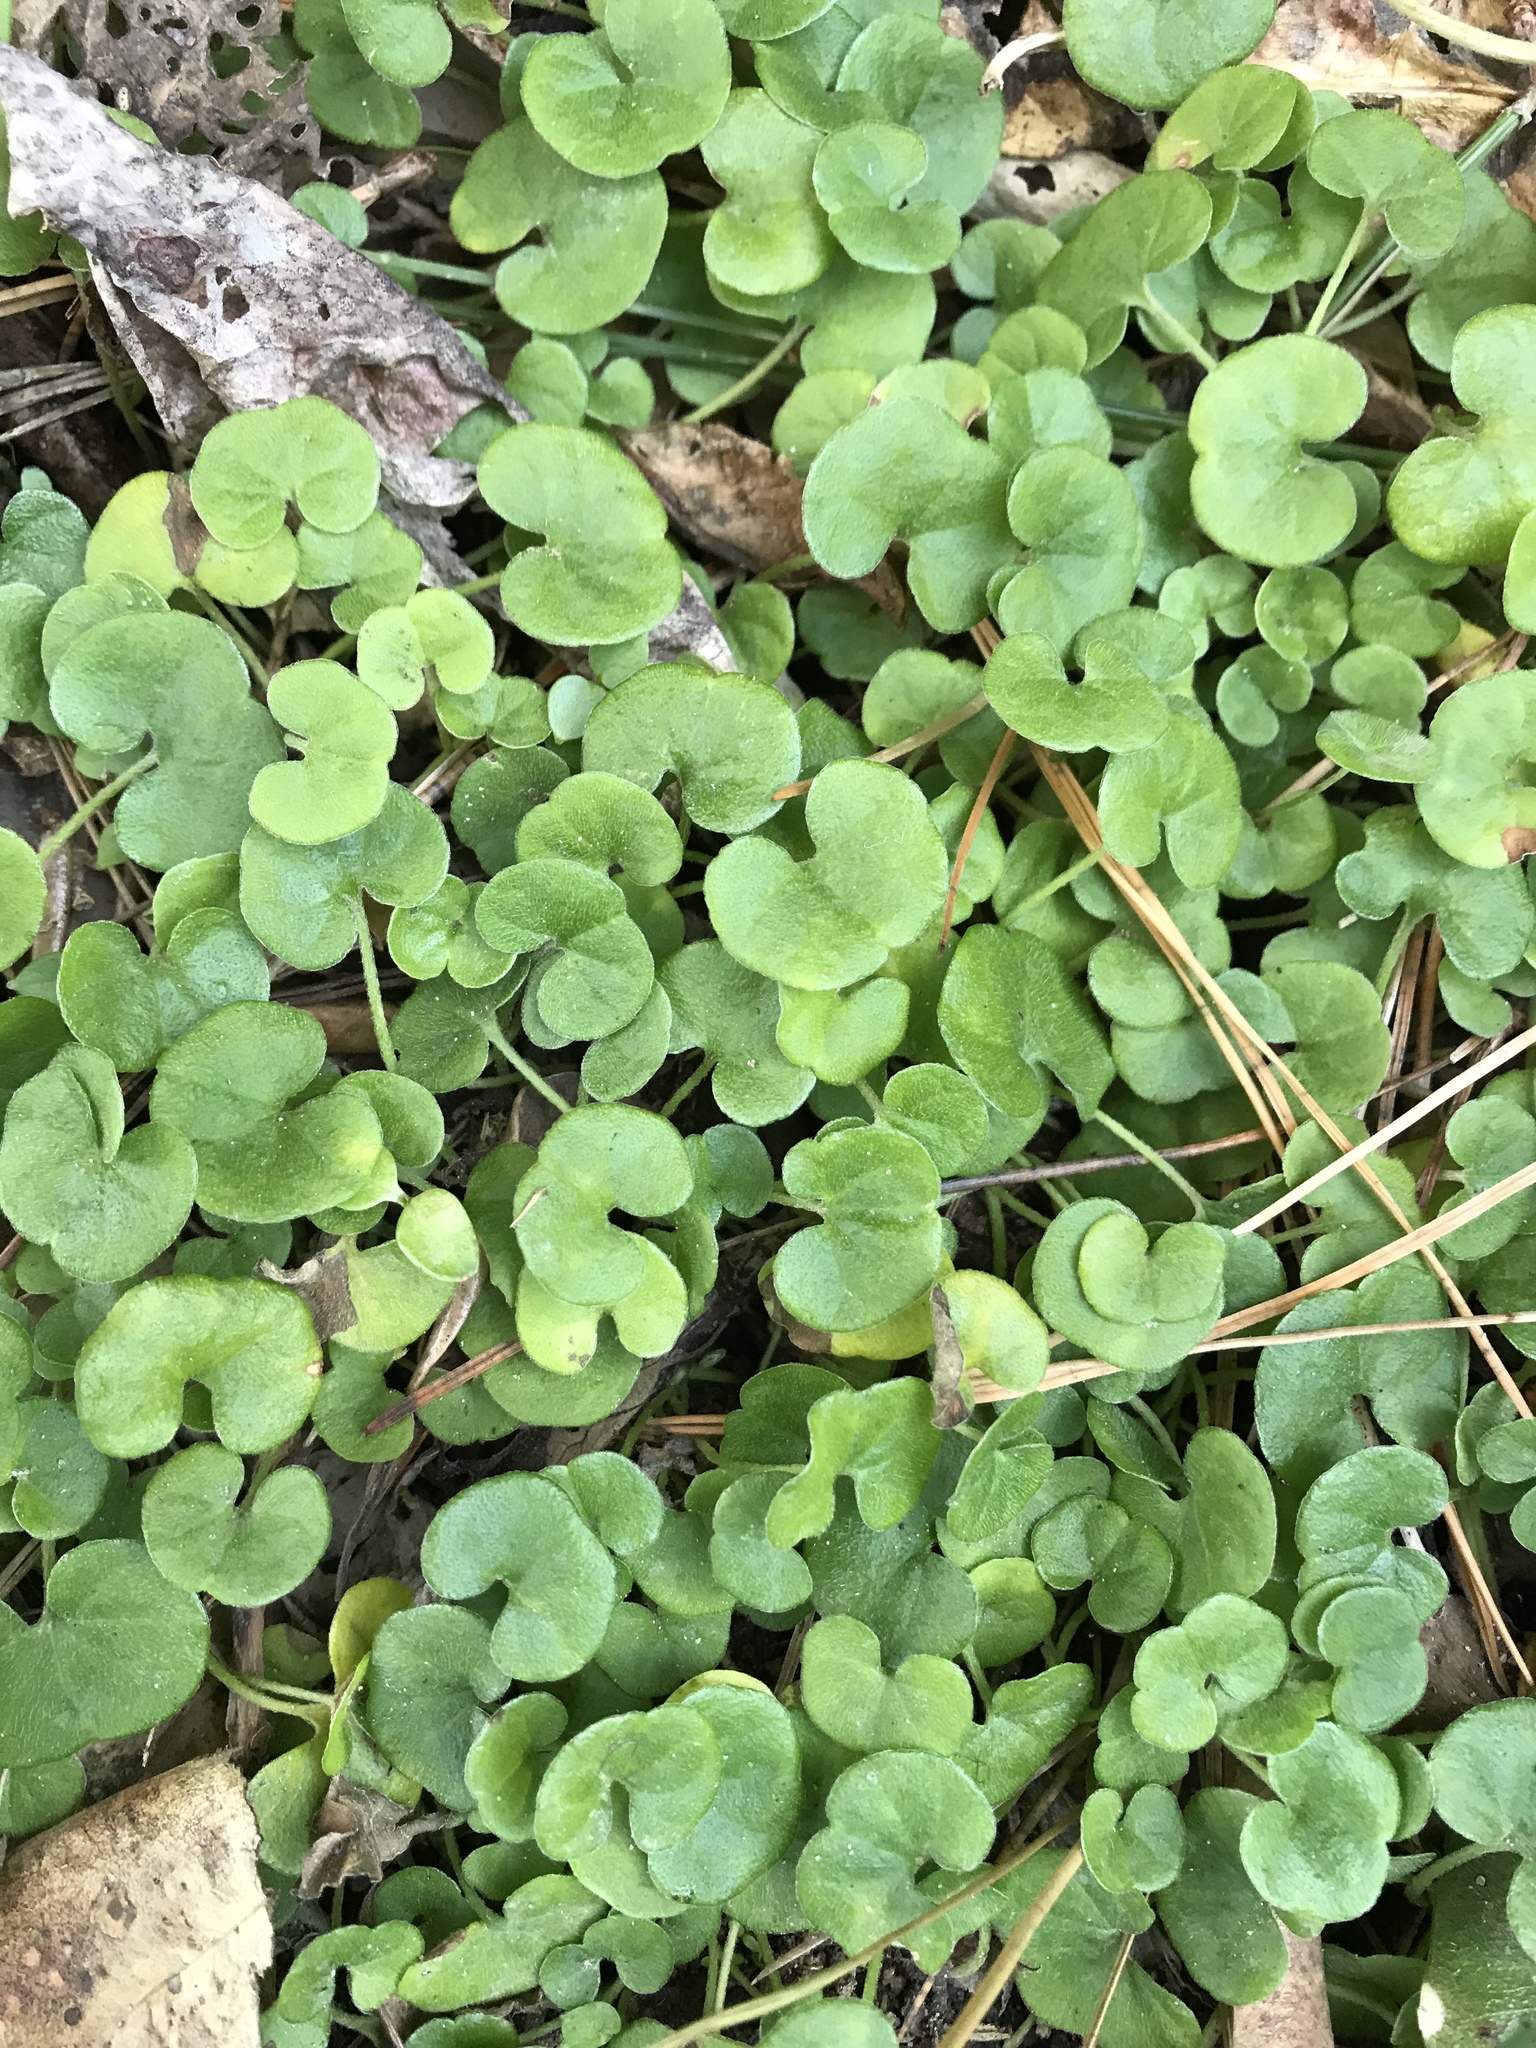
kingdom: Plantae
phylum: Tracheophyta
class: Magnoliopsida
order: Solanales
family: Convolvulaceae
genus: Dichondra
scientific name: Dichondra repens
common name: Kidneyweed
